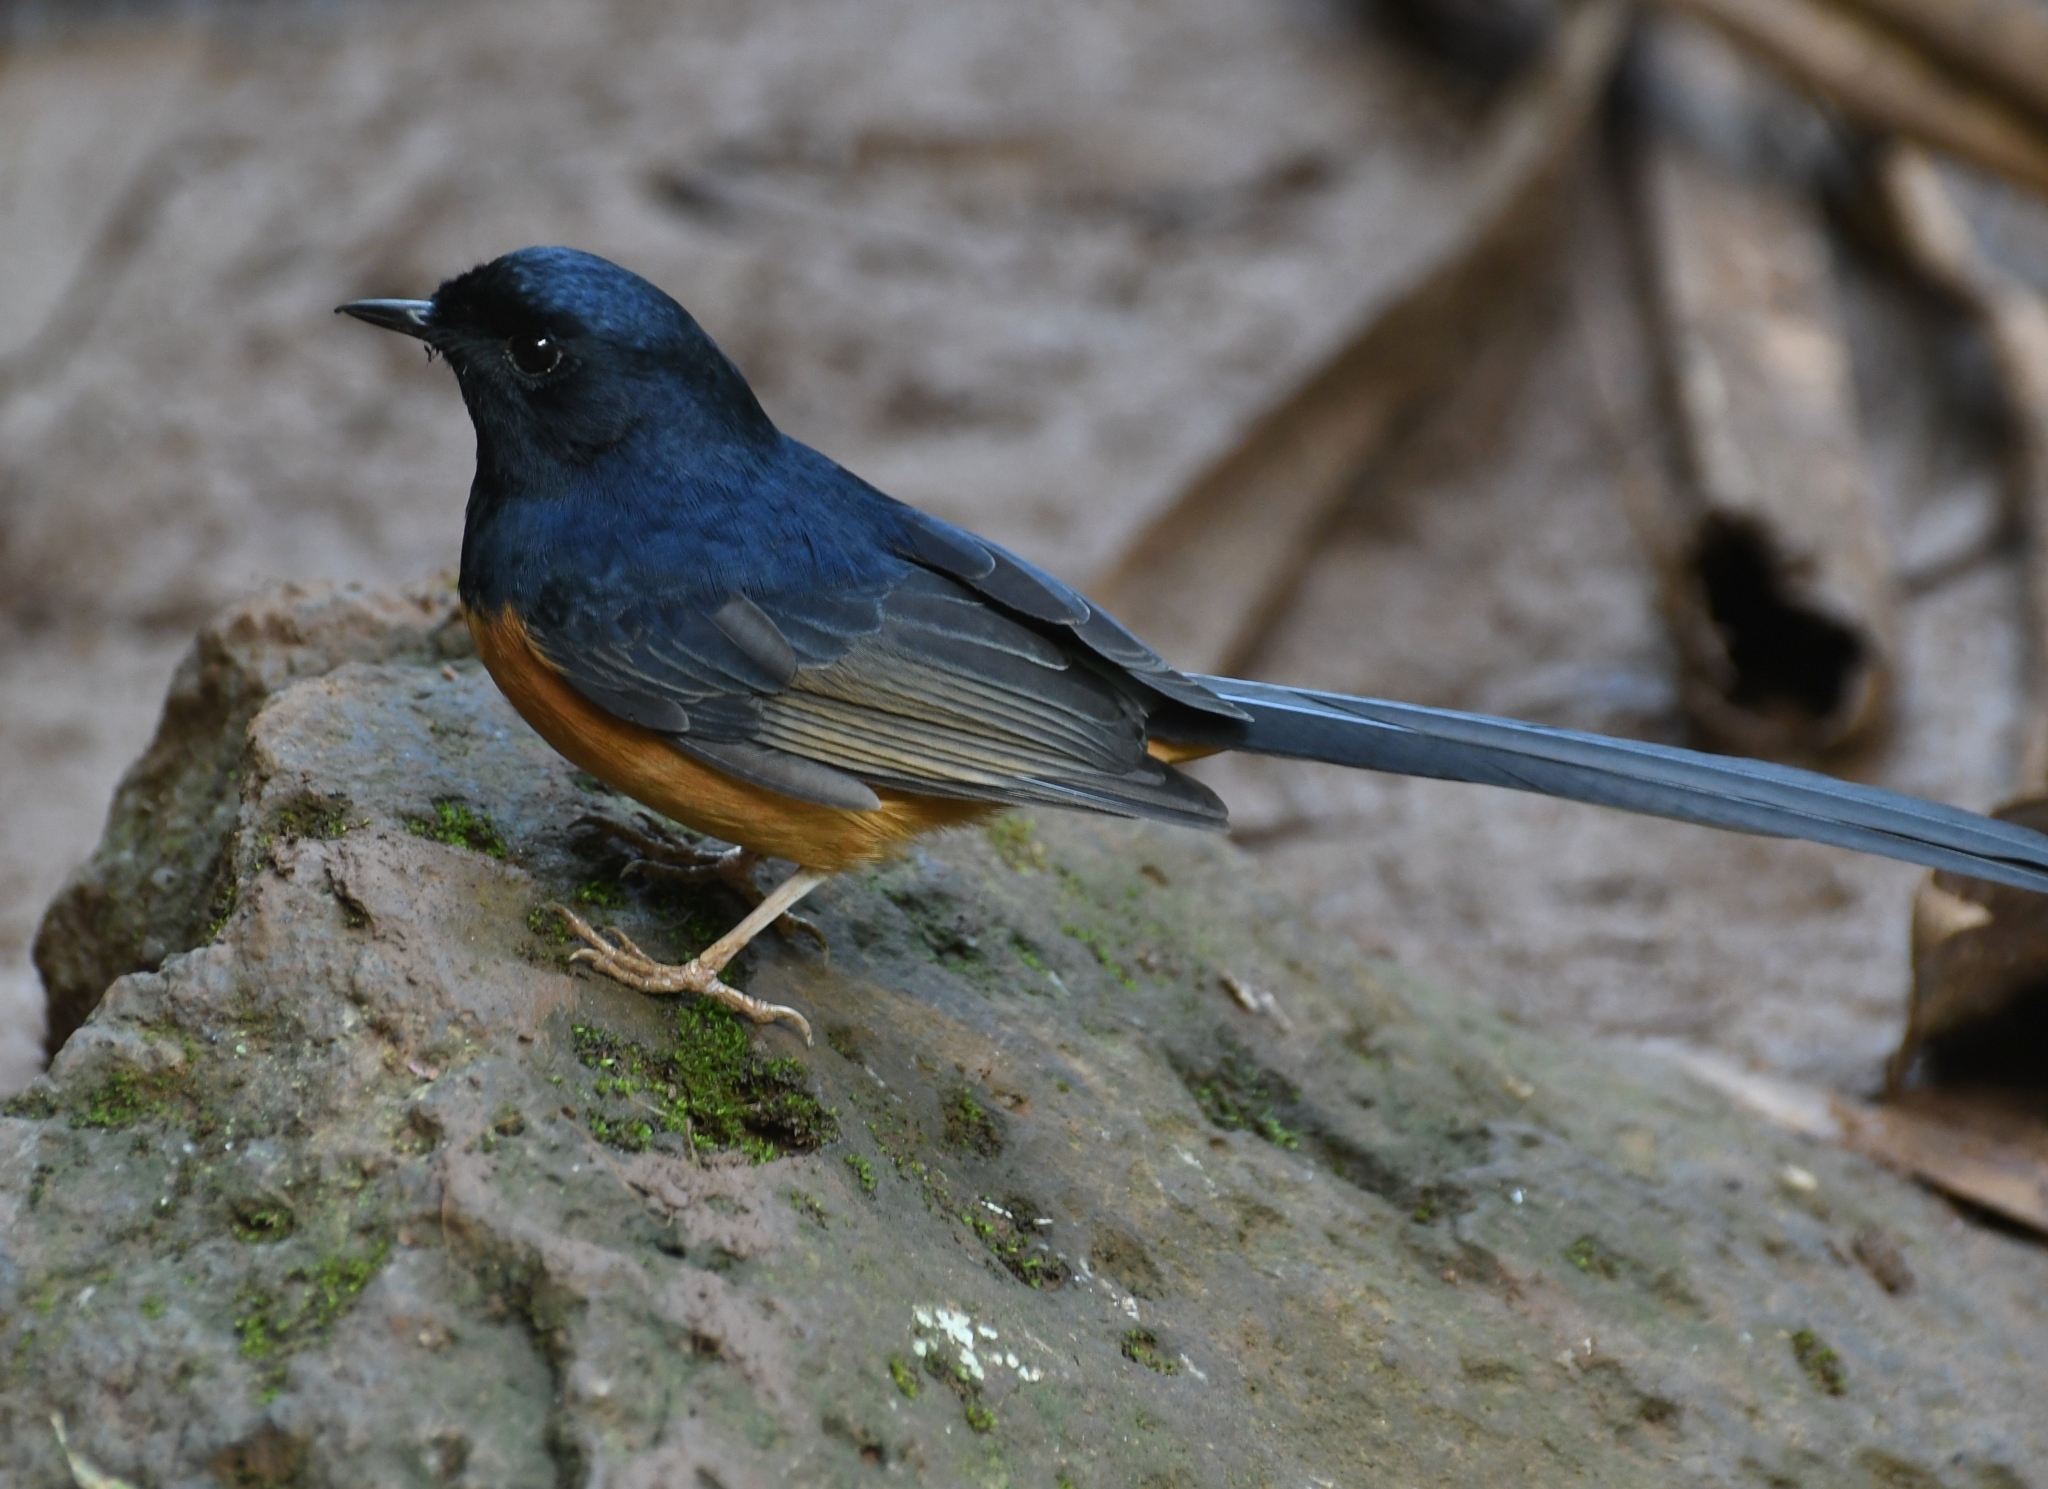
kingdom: Animalia
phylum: Chordata
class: Aves
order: Passeriformes
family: Muscicapidae
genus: Copsychus
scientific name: Copsychus malabaricus
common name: White-rumped shama
